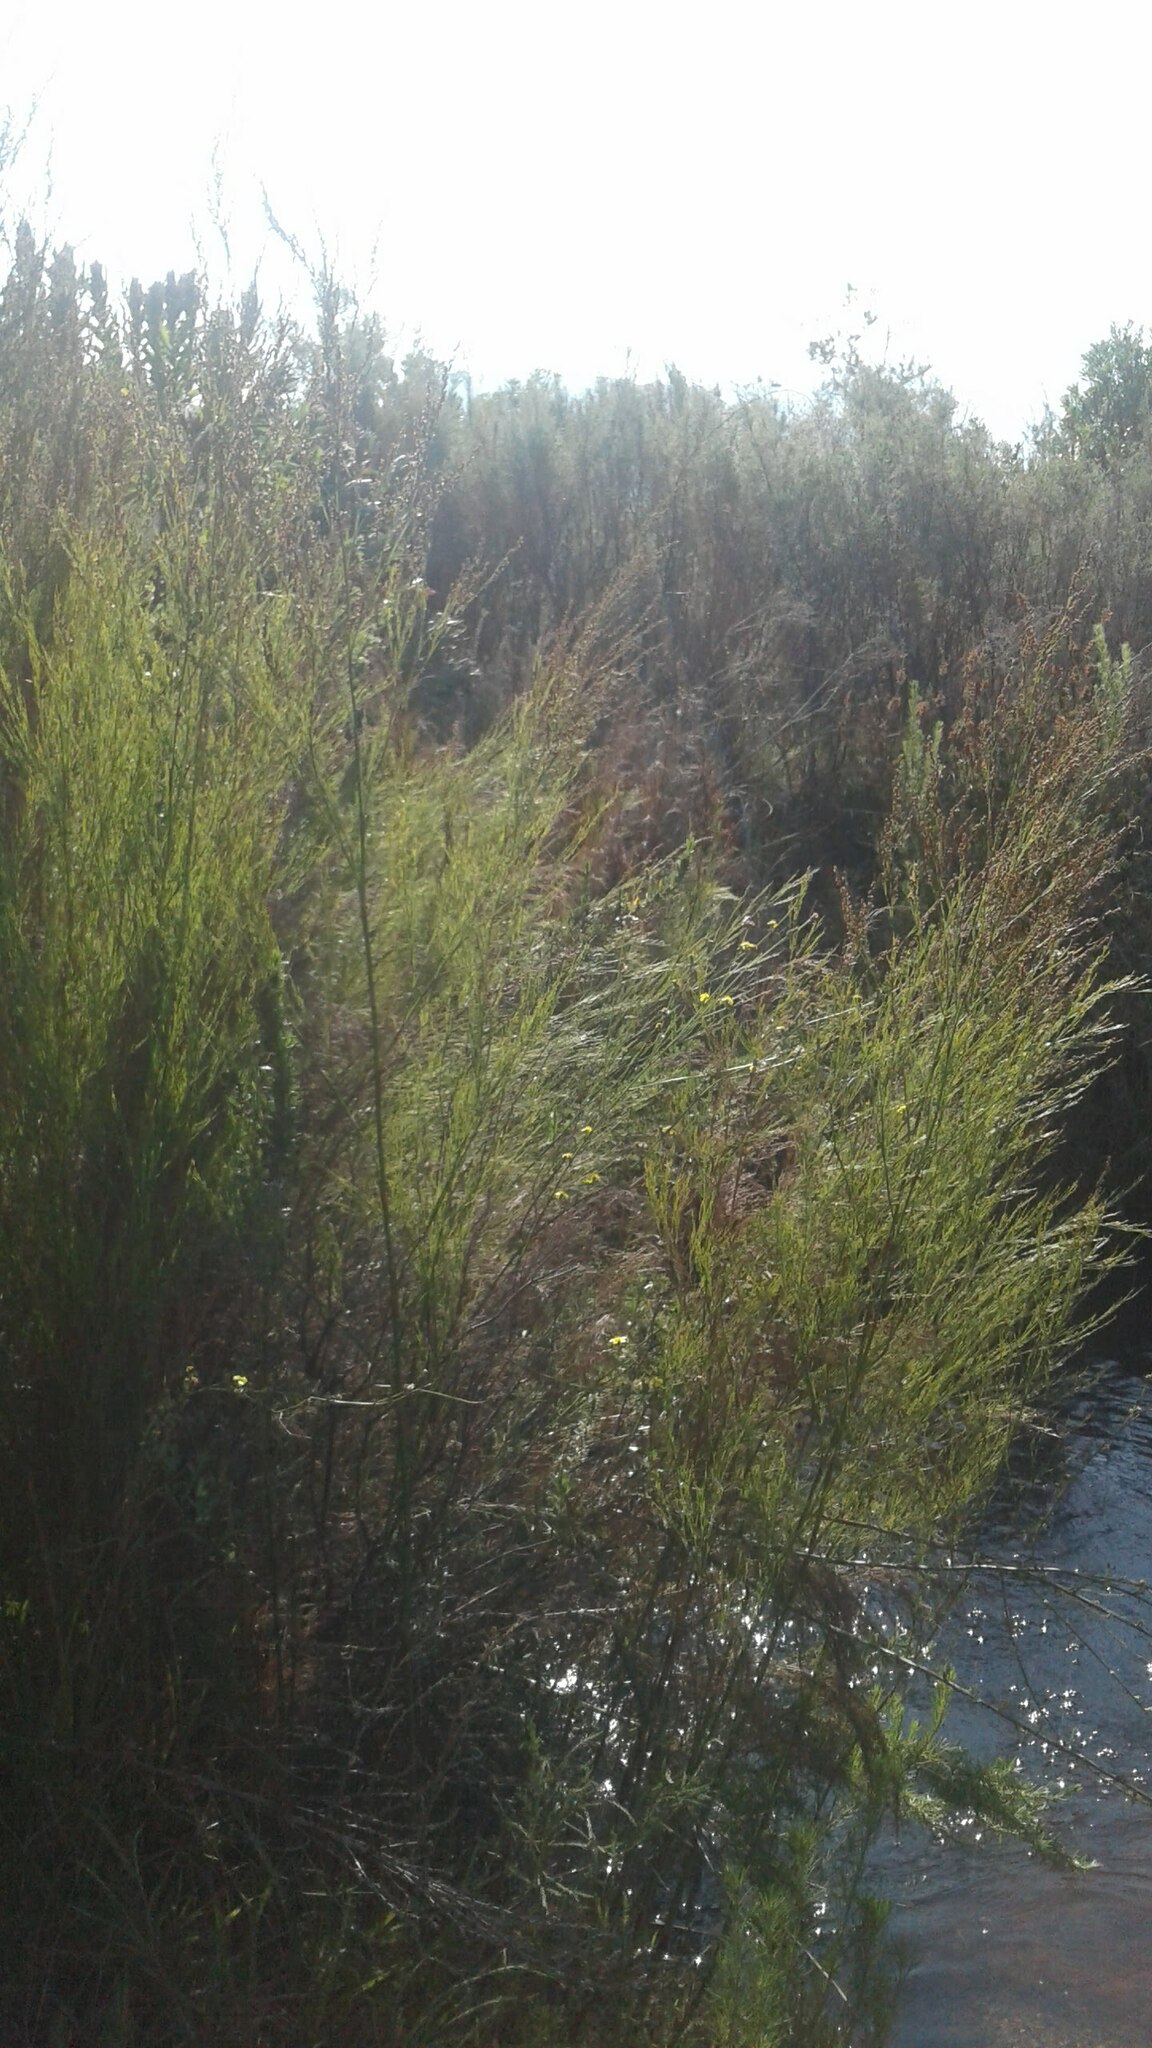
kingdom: Plantae
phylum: Tracheophyta
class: Liliopsida
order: Poales
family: Restionaceae
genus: Restio
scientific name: Restio paniculatus
